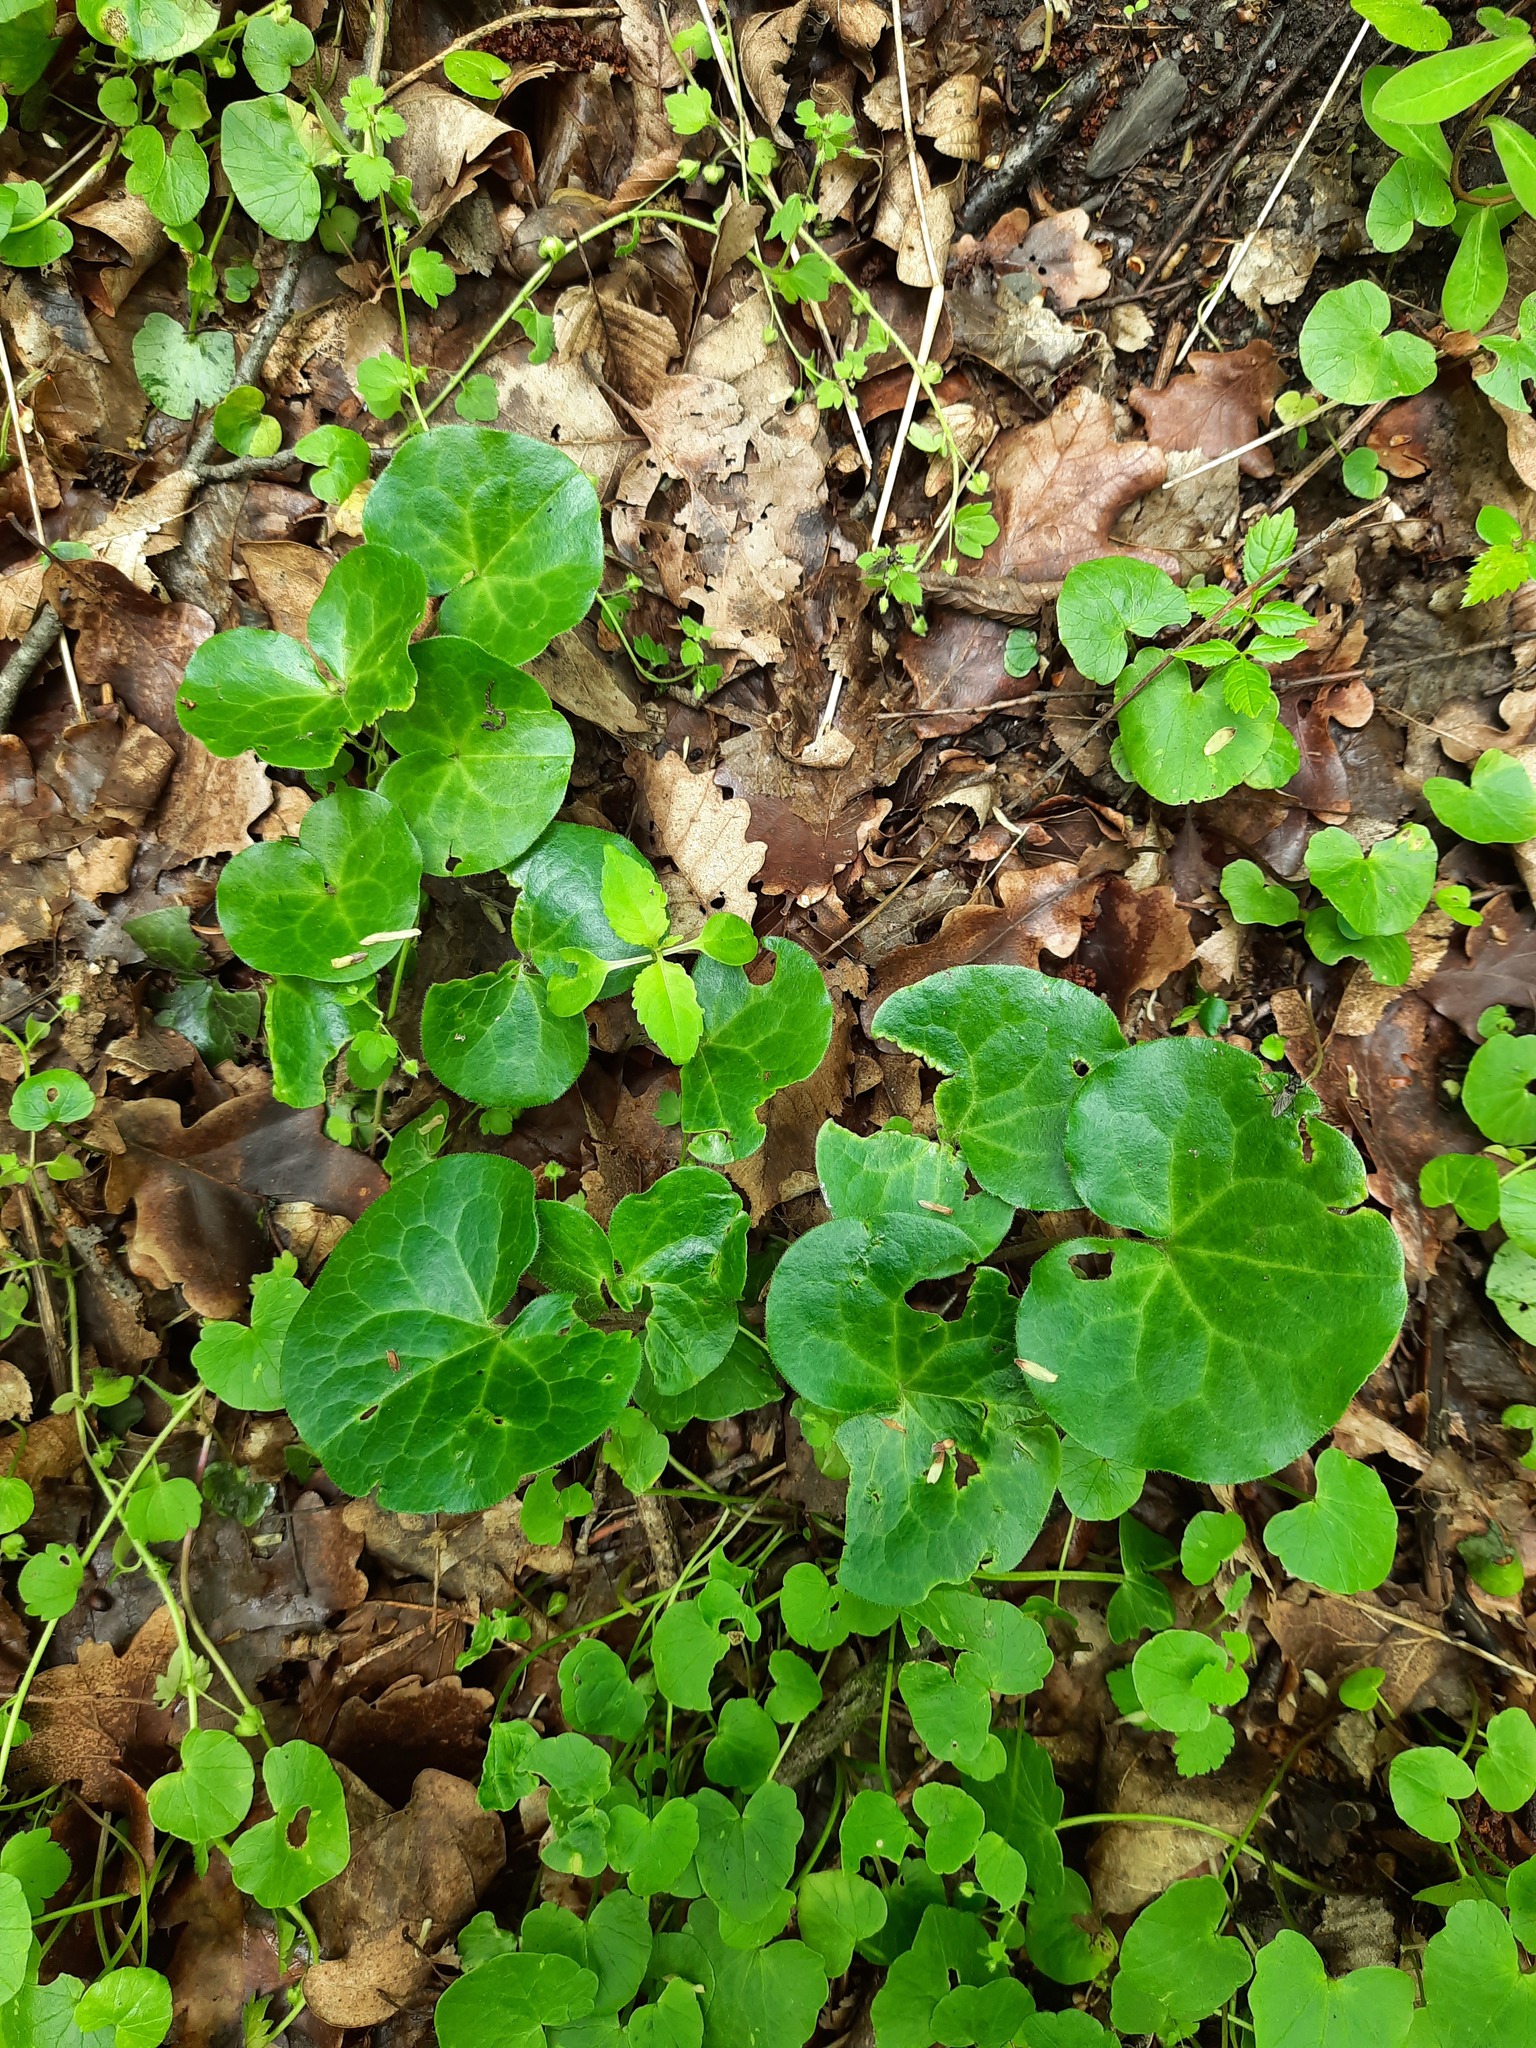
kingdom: Plantae
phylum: Tracheophyta
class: Magnoliopsida
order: Piperales
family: Aristolochiaceae
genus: Asarum
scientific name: Asarum europaeum
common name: Asarabacca
